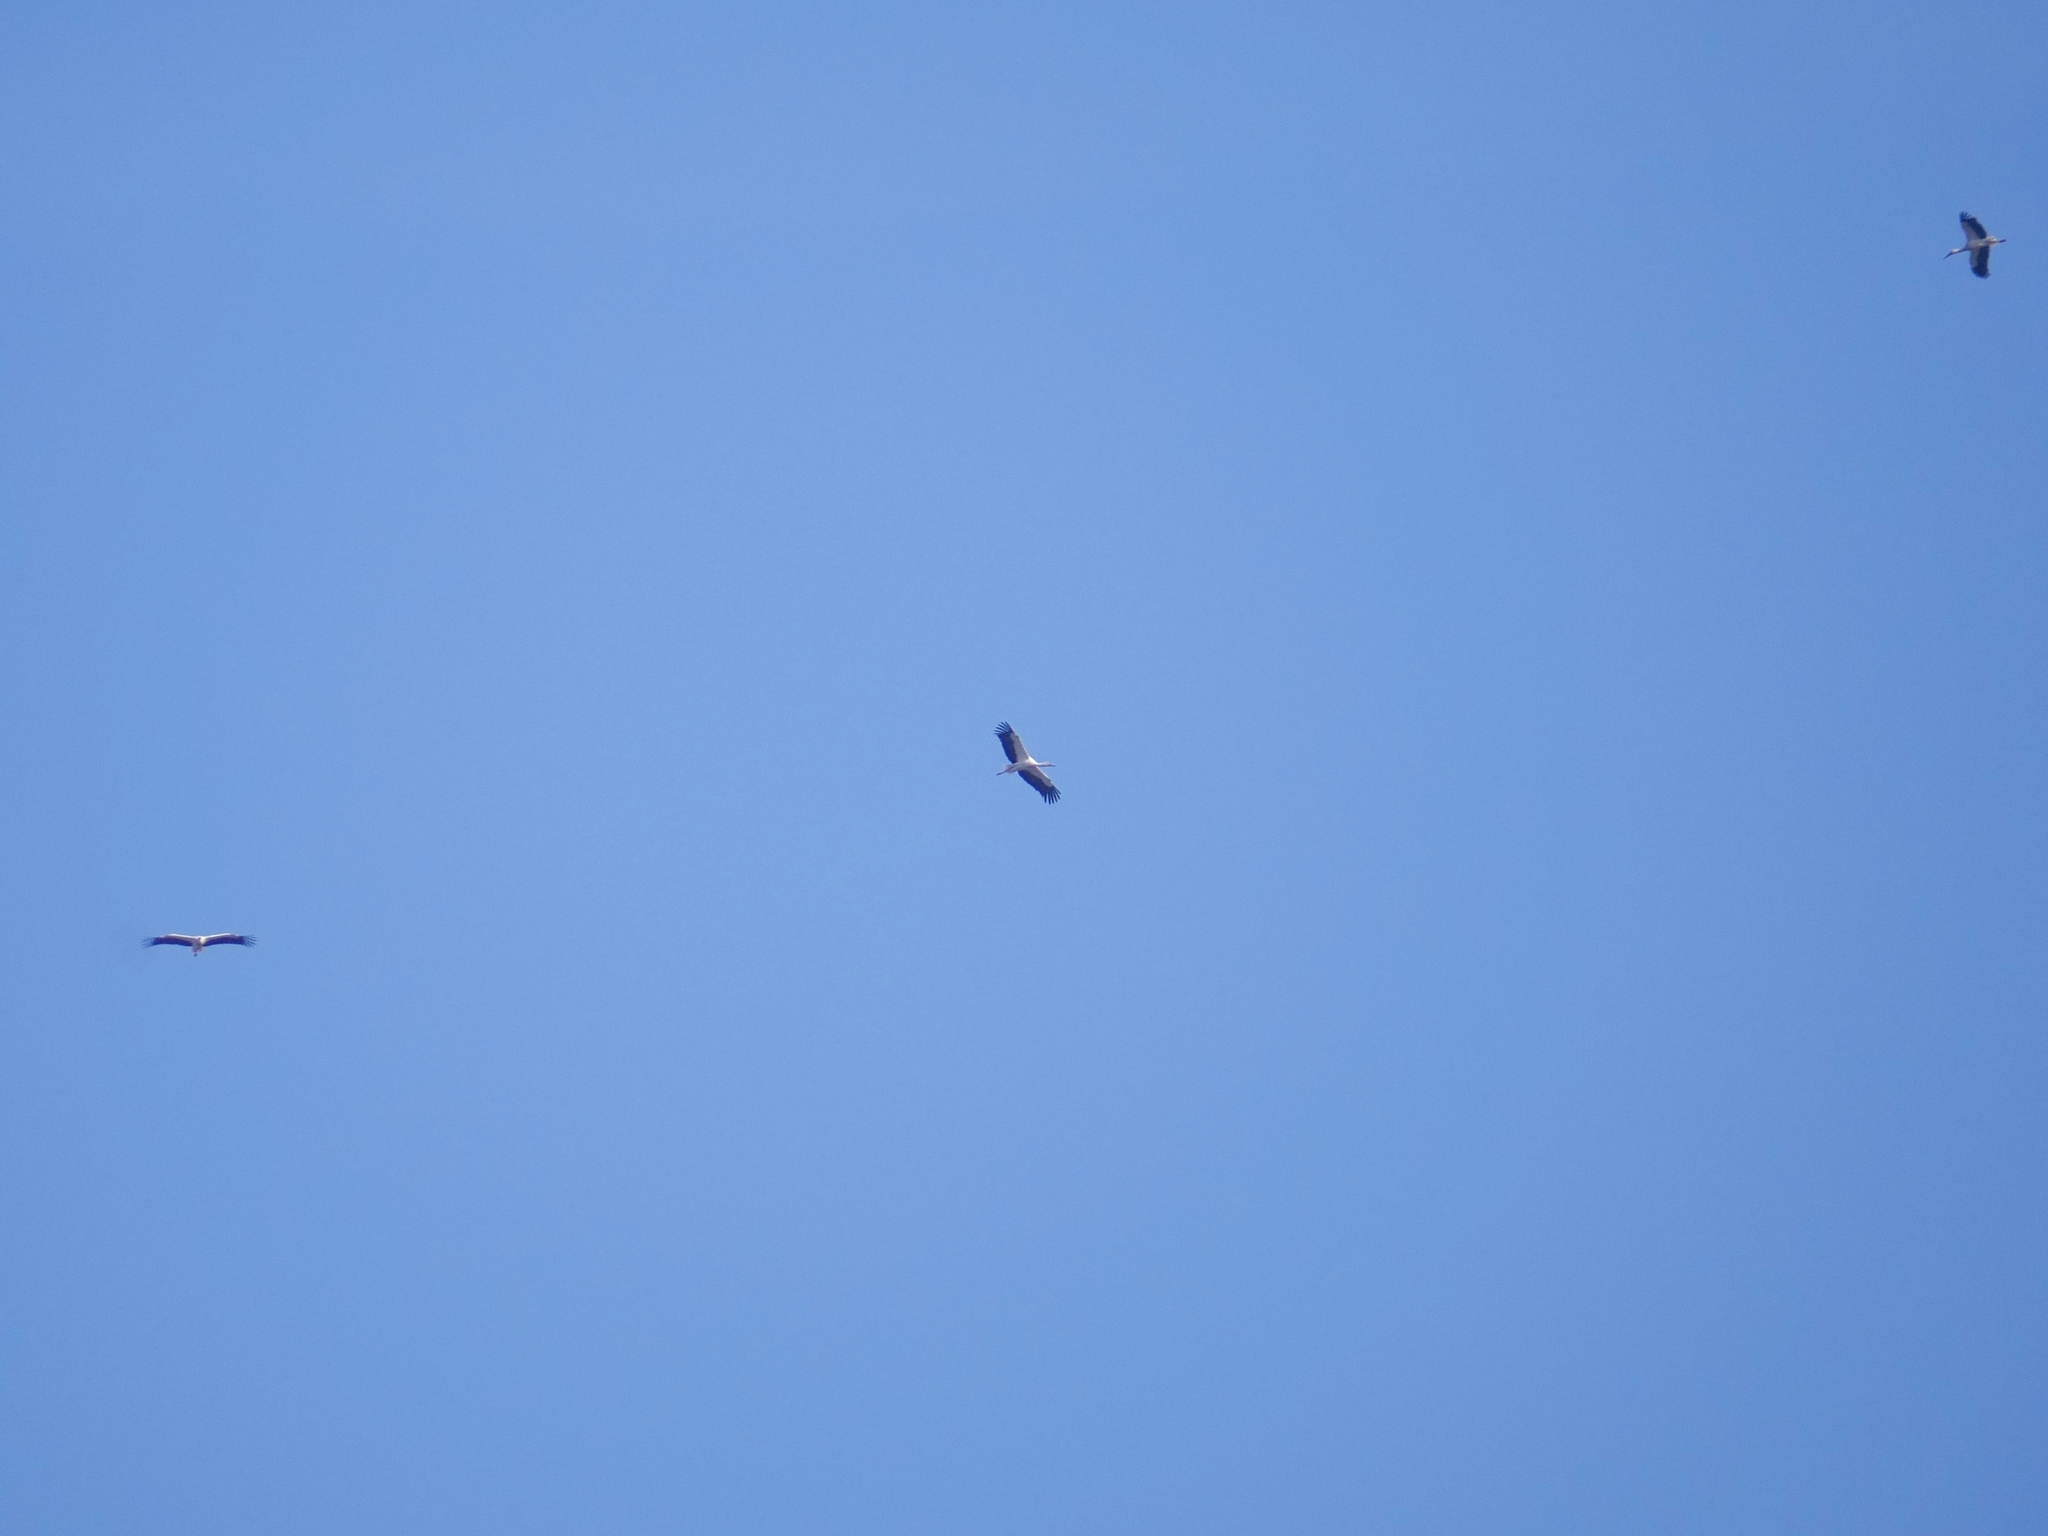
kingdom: Animalia
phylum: Chordata
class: Aves
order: Ciconiiformes
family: Ciconiidae
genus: Ciconia
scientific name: Ciconia ciconia
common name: White stork
